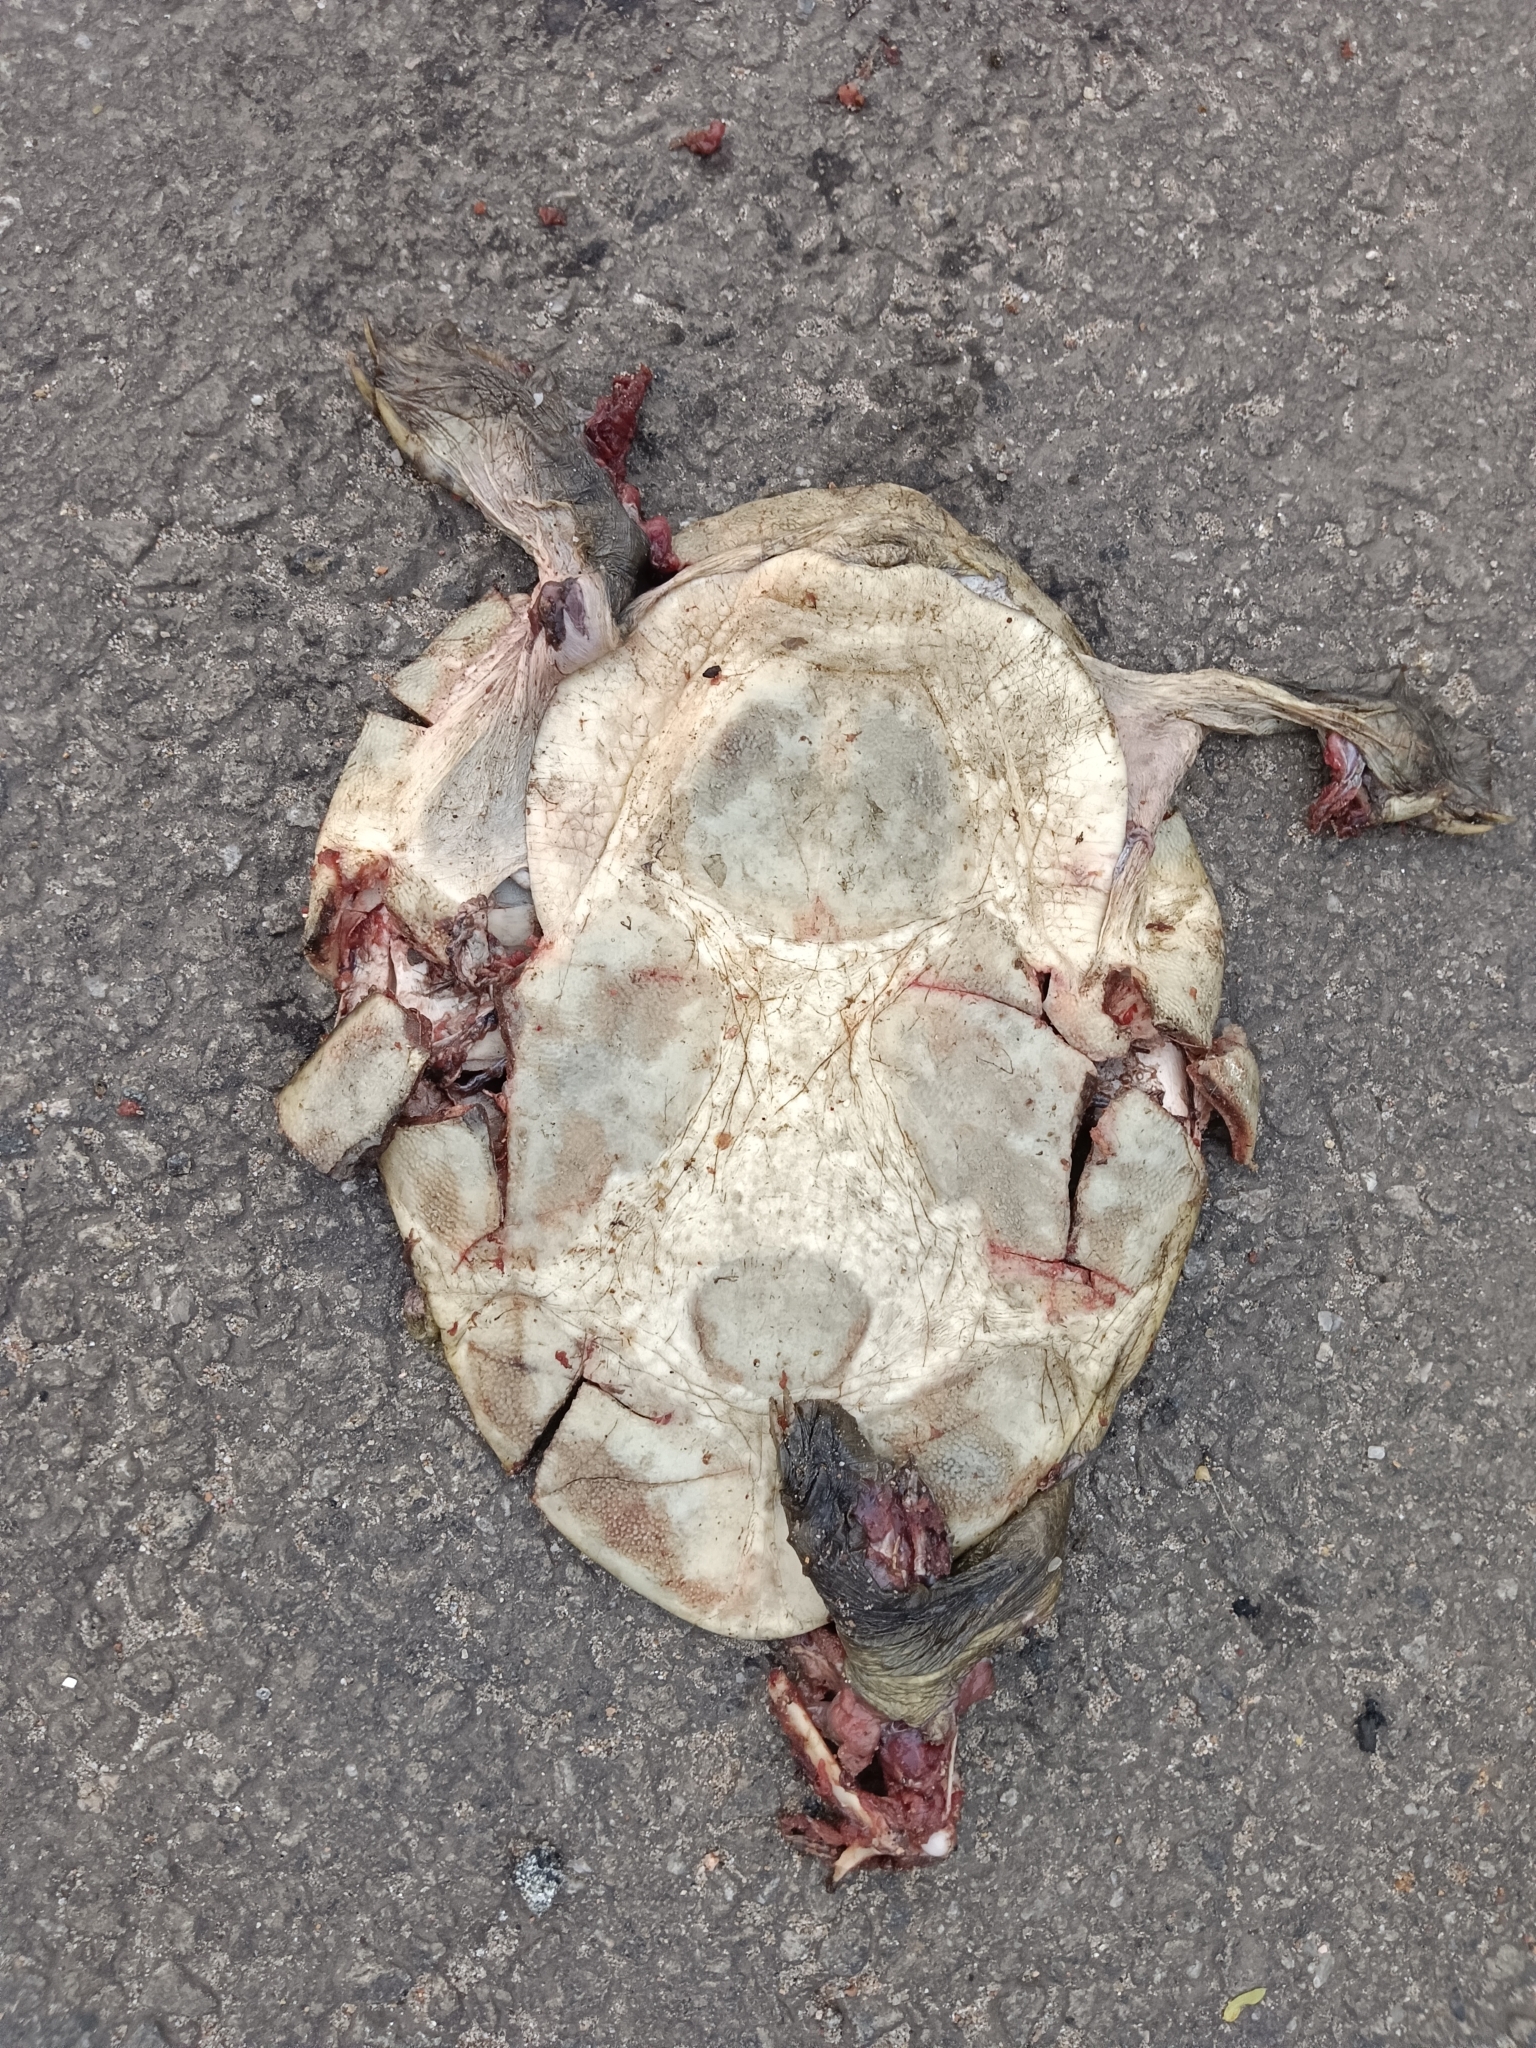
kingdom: Animalia
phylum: Chordata
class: Testudines
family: Trionychidae
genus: Lissemys
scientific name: Lissemys punctata
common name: Indian flap-shelled turtle
